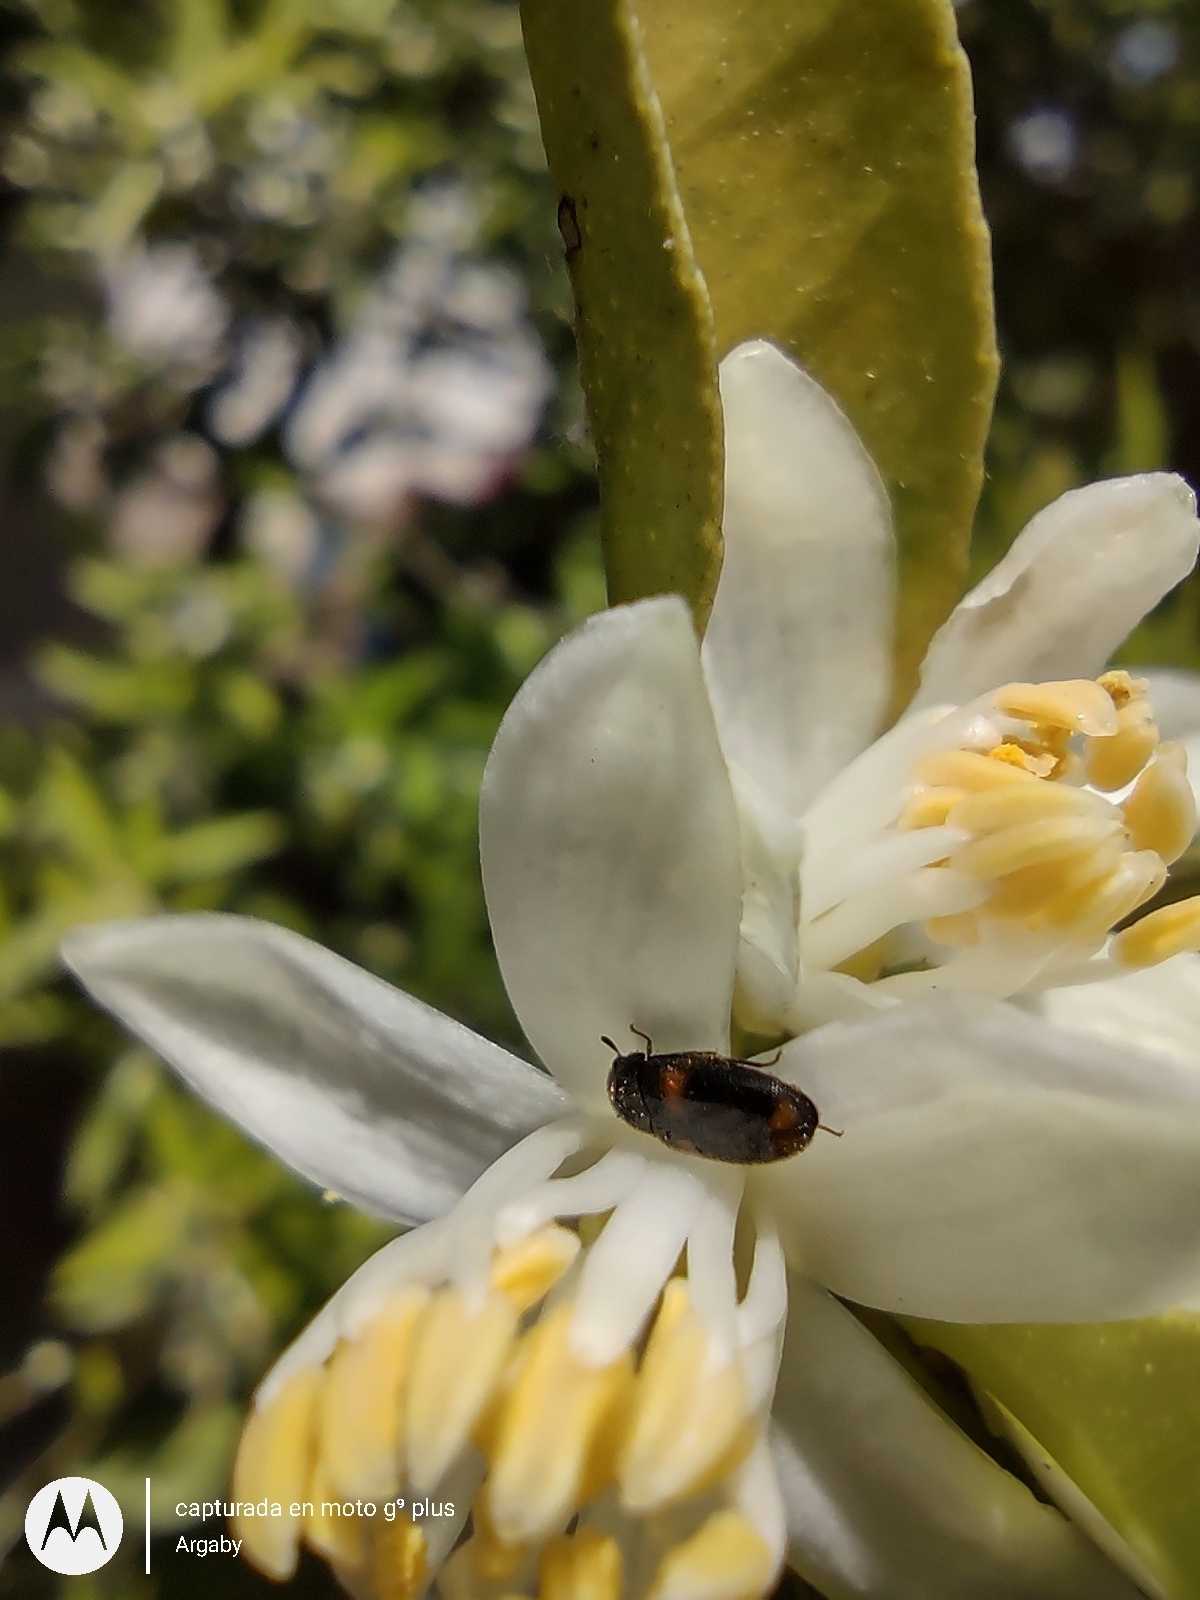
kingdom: Animalia
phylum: Arthropoda
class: Insecta
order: Coleoptera
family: Dermestidae
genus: Trogoderma
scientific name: Trogoderma
